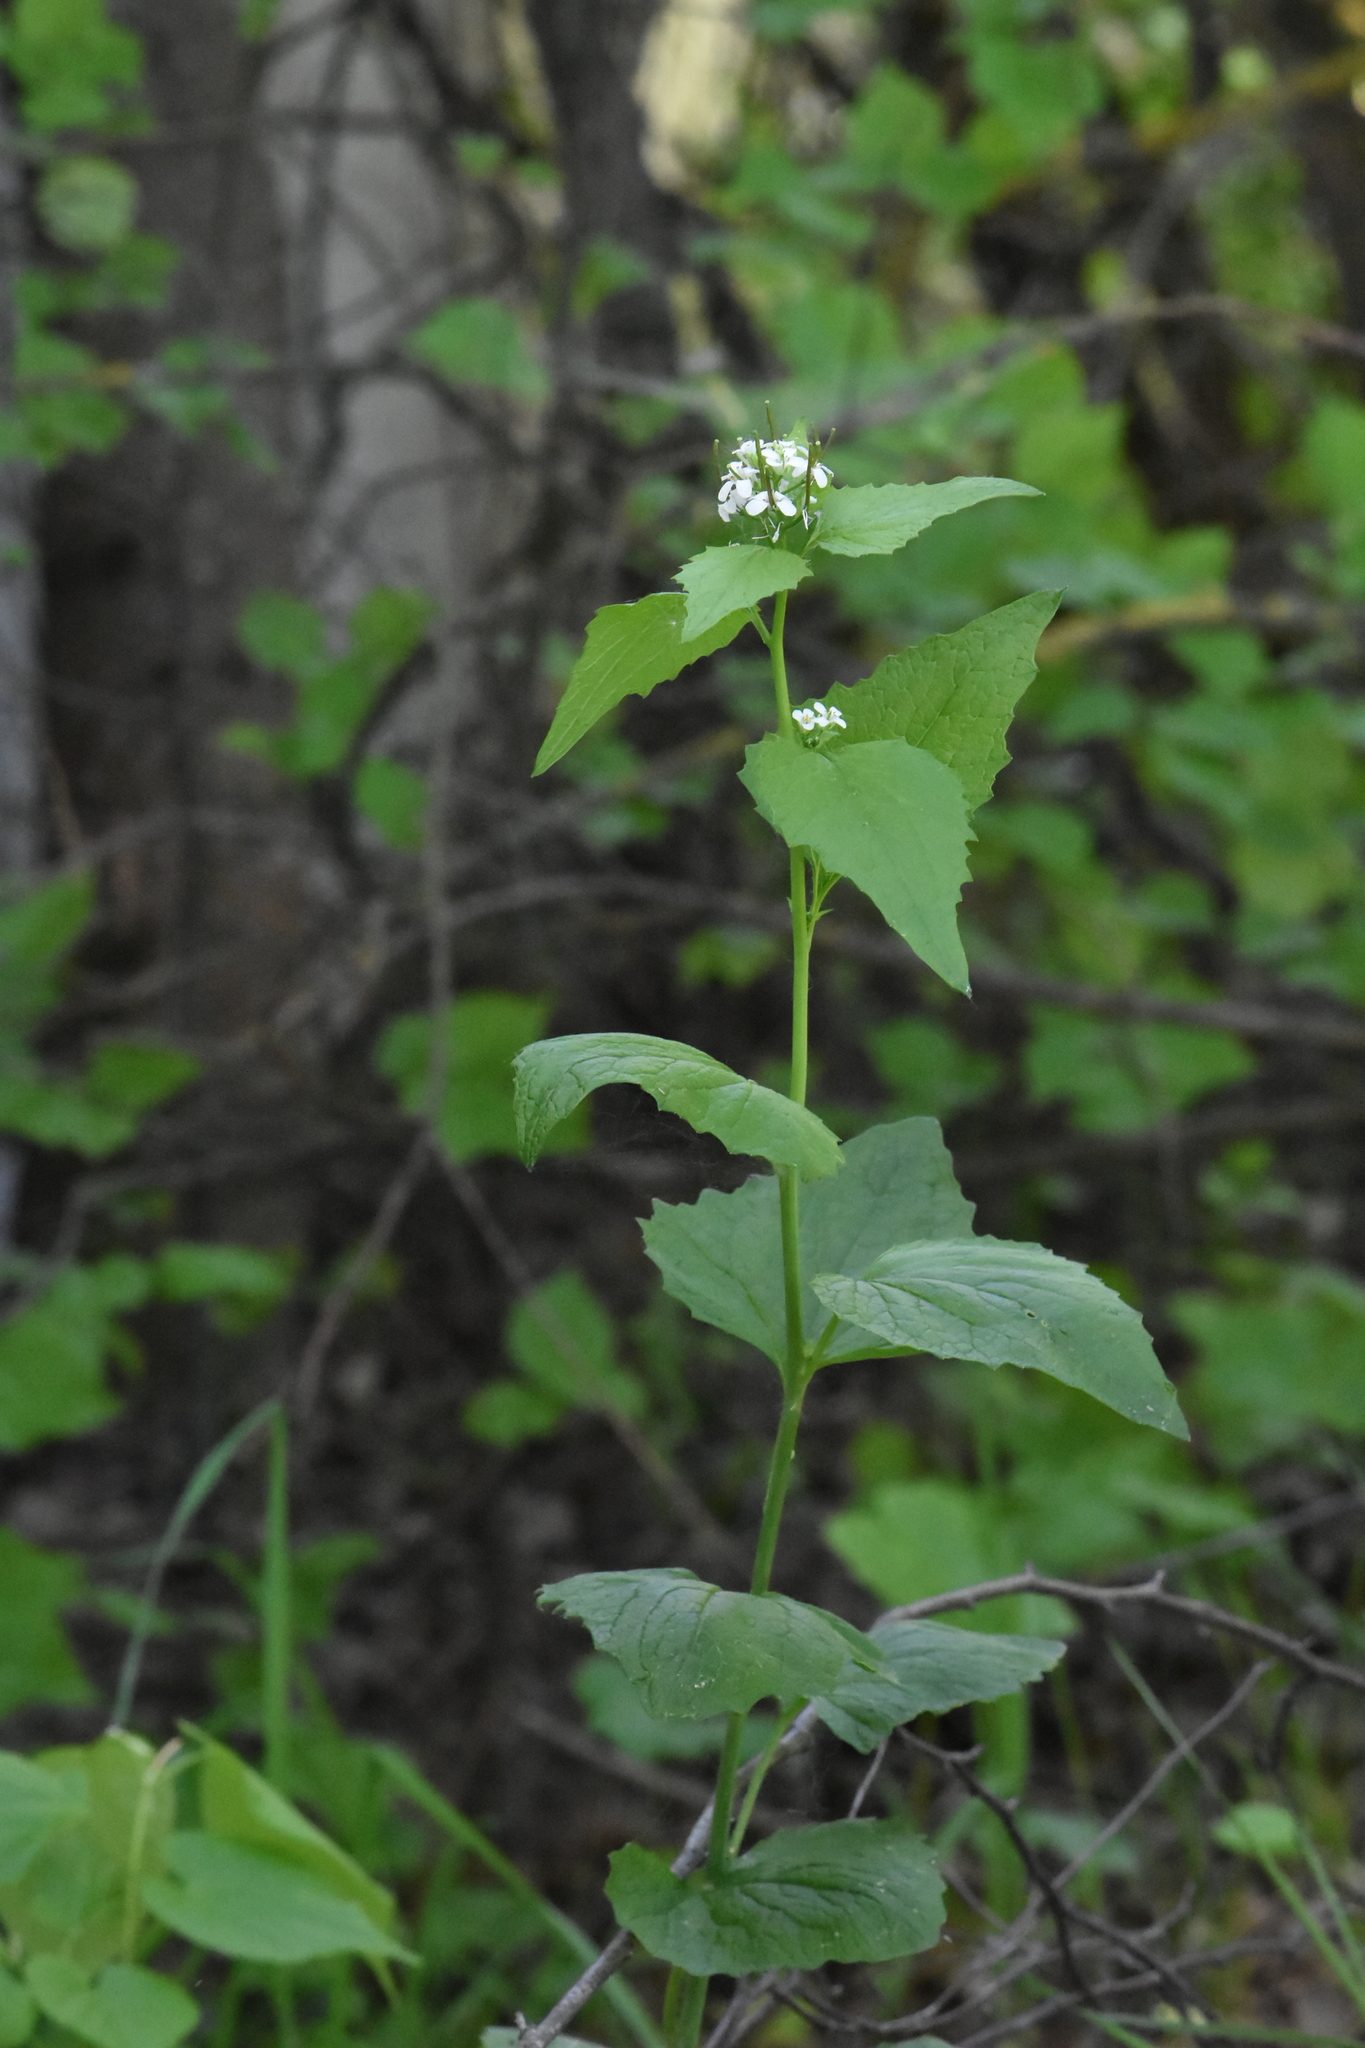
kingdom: Plantae
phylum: Tracheophyta
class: Magnoliopsida
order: Brassicales
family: Brassicaceae
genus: Alliaria
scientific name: Alliaria petiolata
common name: Garlic mustard
